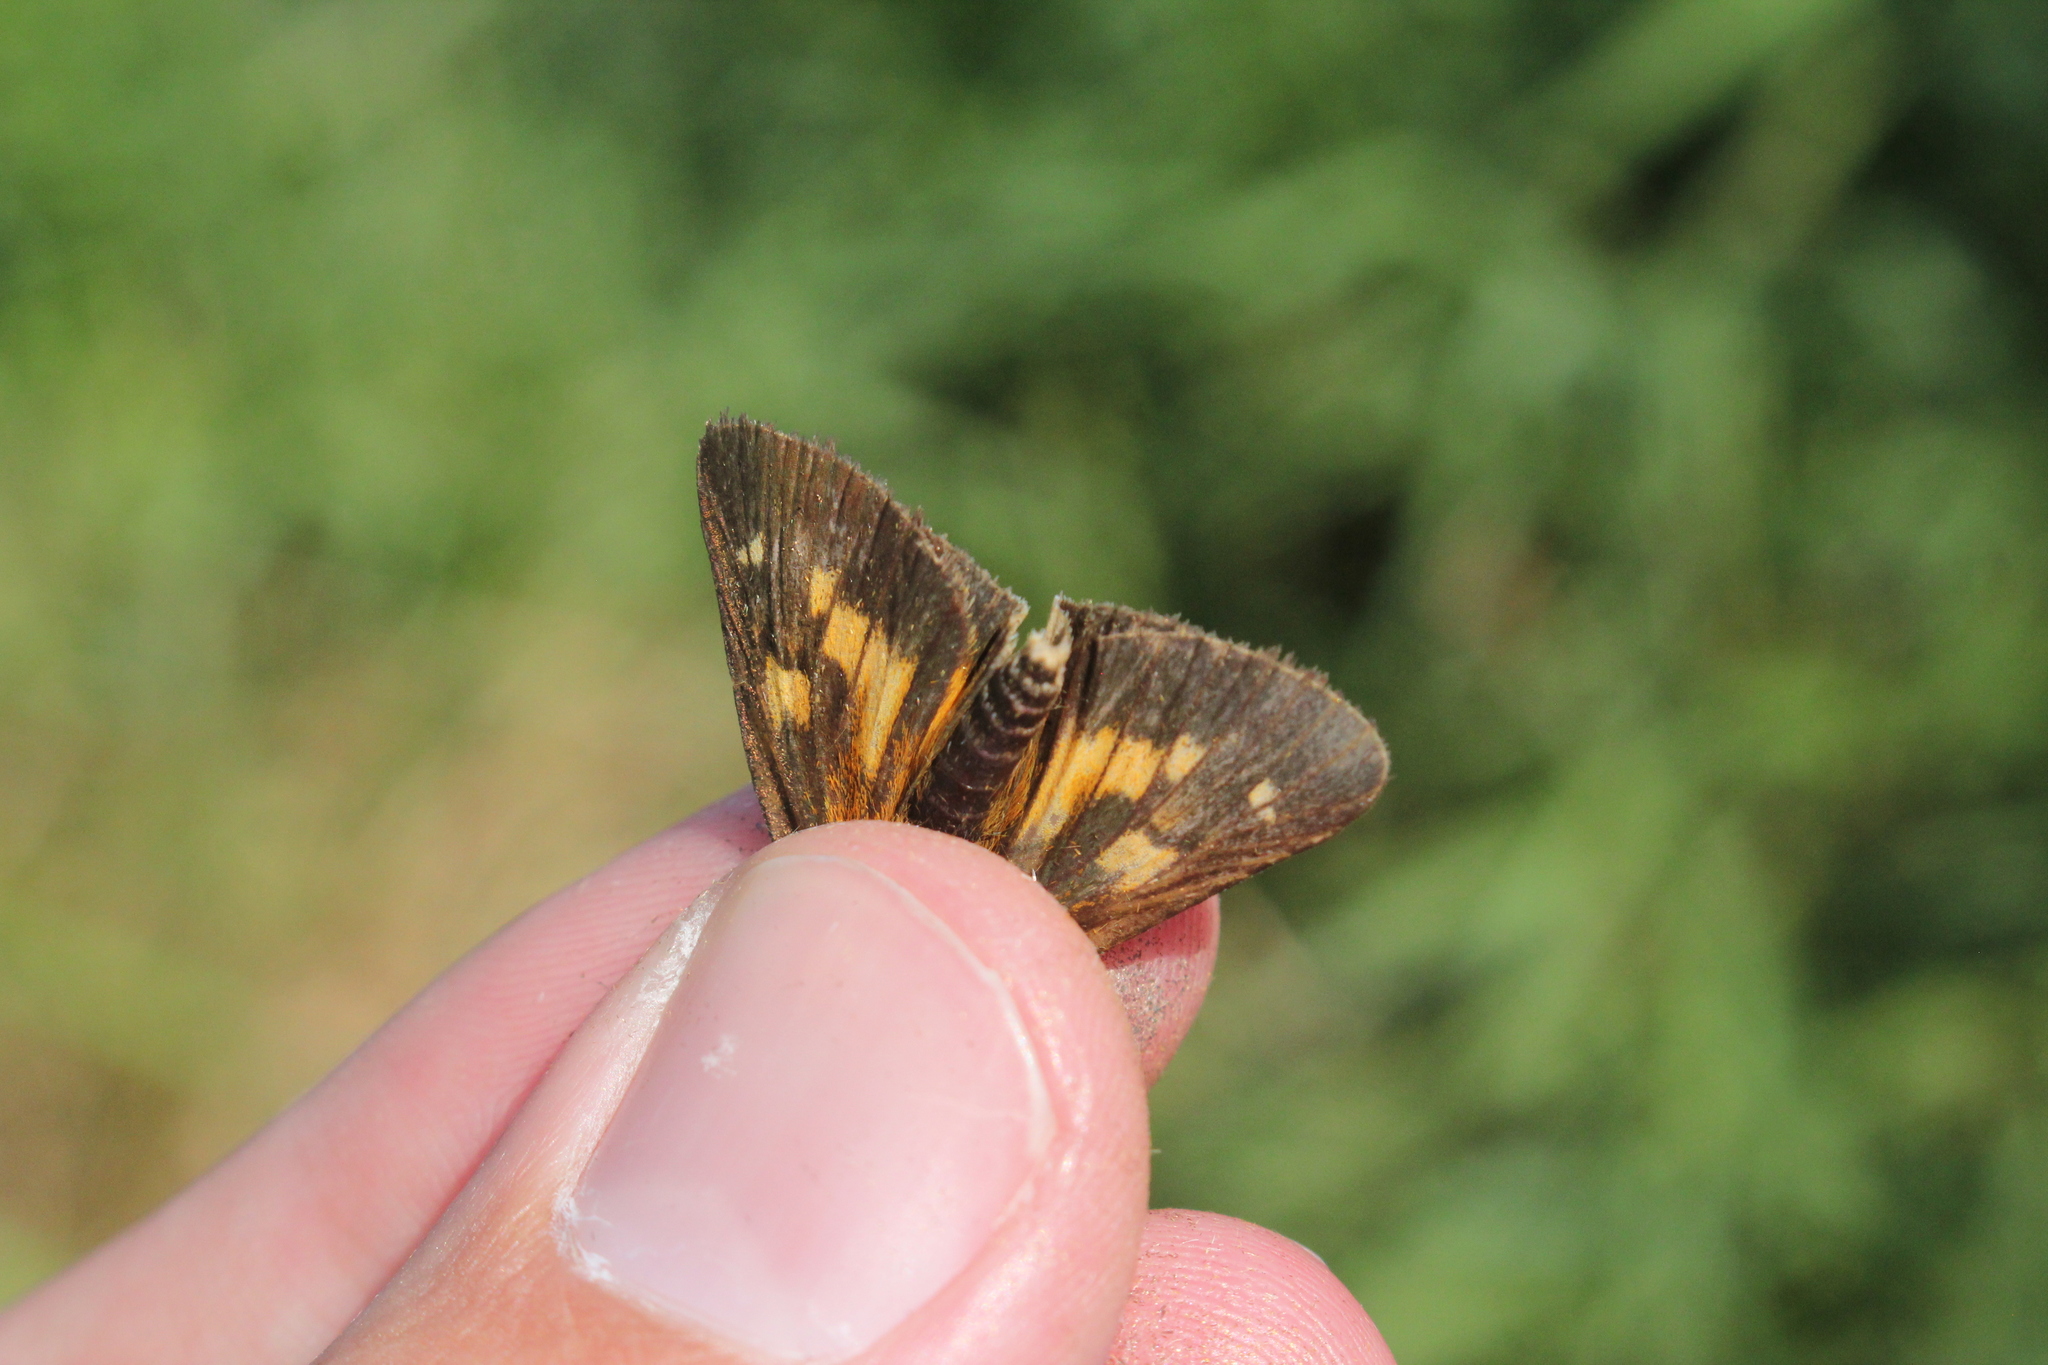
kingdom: Animalia
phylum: Arthropoda
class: Insecta
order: Lepidoptera
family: Hesperiidae
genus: Poanes
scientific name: Poanes viator
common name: Broad-winged skipper
